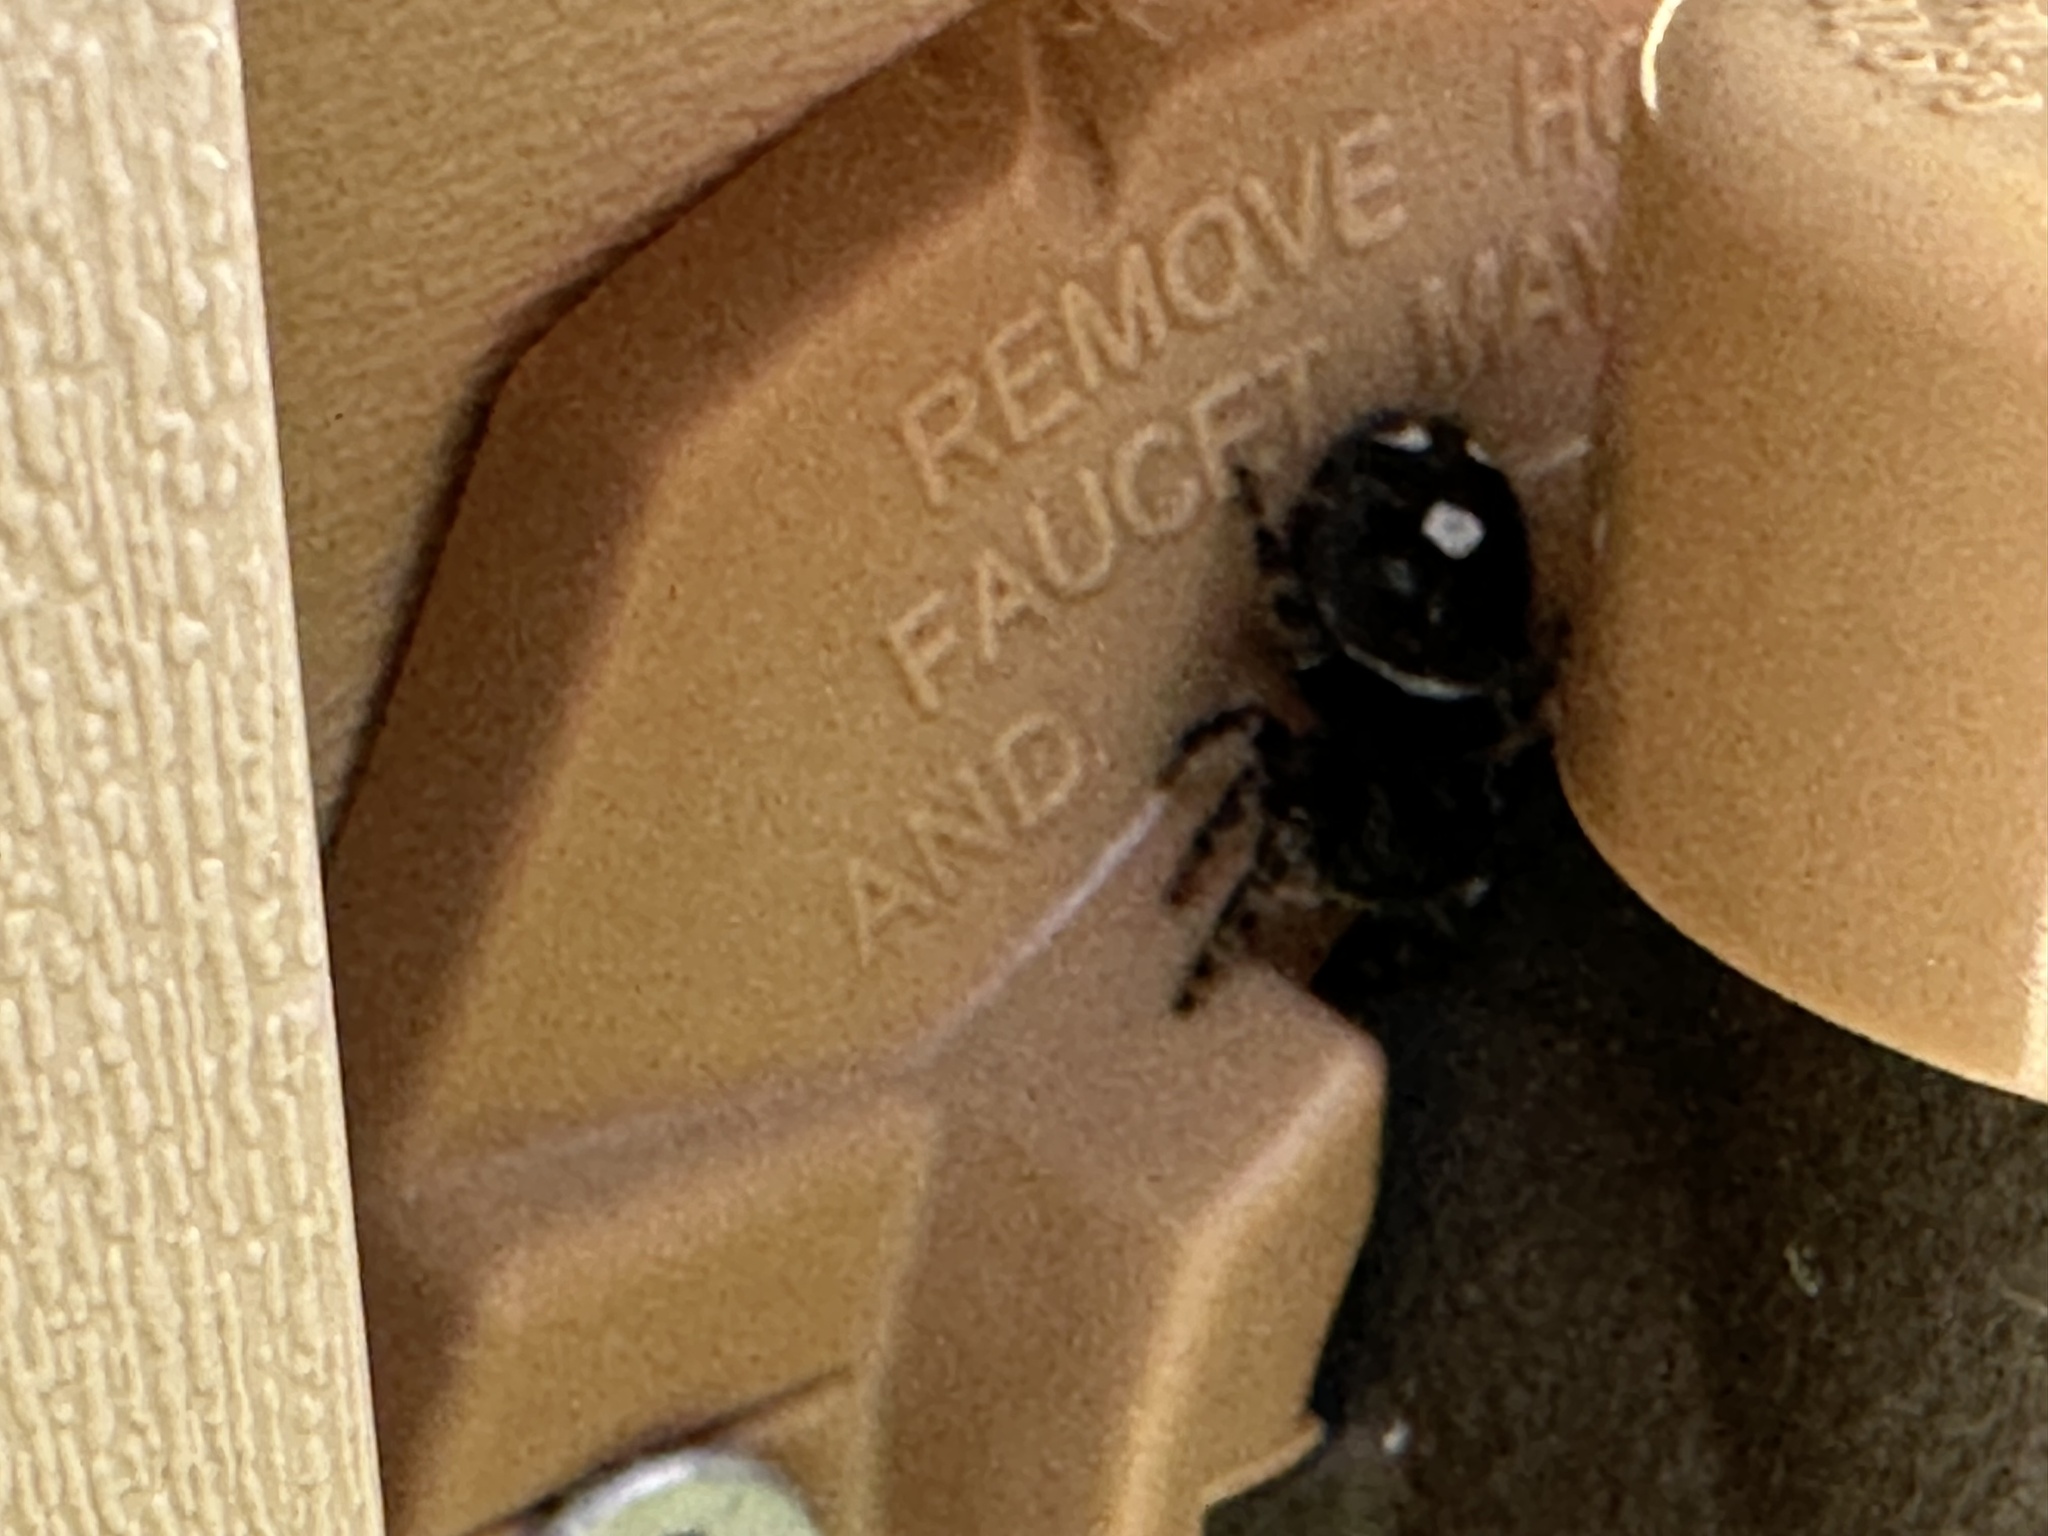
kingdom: Animalia
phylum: Arthropoda
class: Arachnida
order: Araneae
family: Salticidae
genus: Phidippus
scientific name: Phidippus audax
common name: Bold jumper
